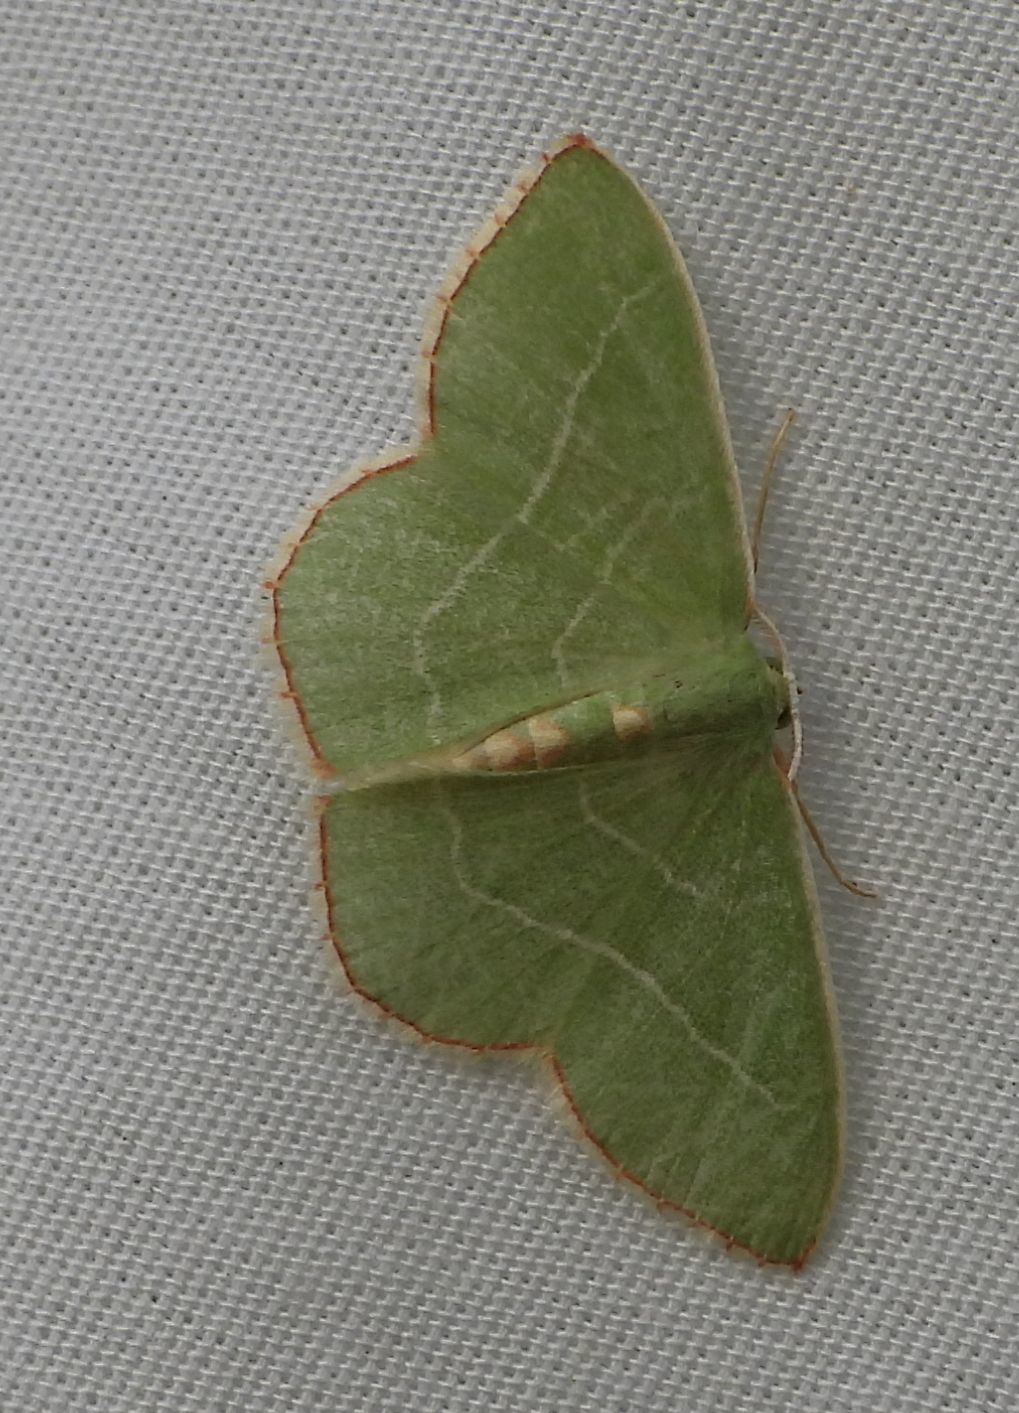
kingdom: Animalia
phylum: Arthropoda
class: Insecta
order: Lepidoptera
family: Geometridae
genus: Nemoria
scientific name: Nemoria bistriaria
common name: Red-fringed emerald
